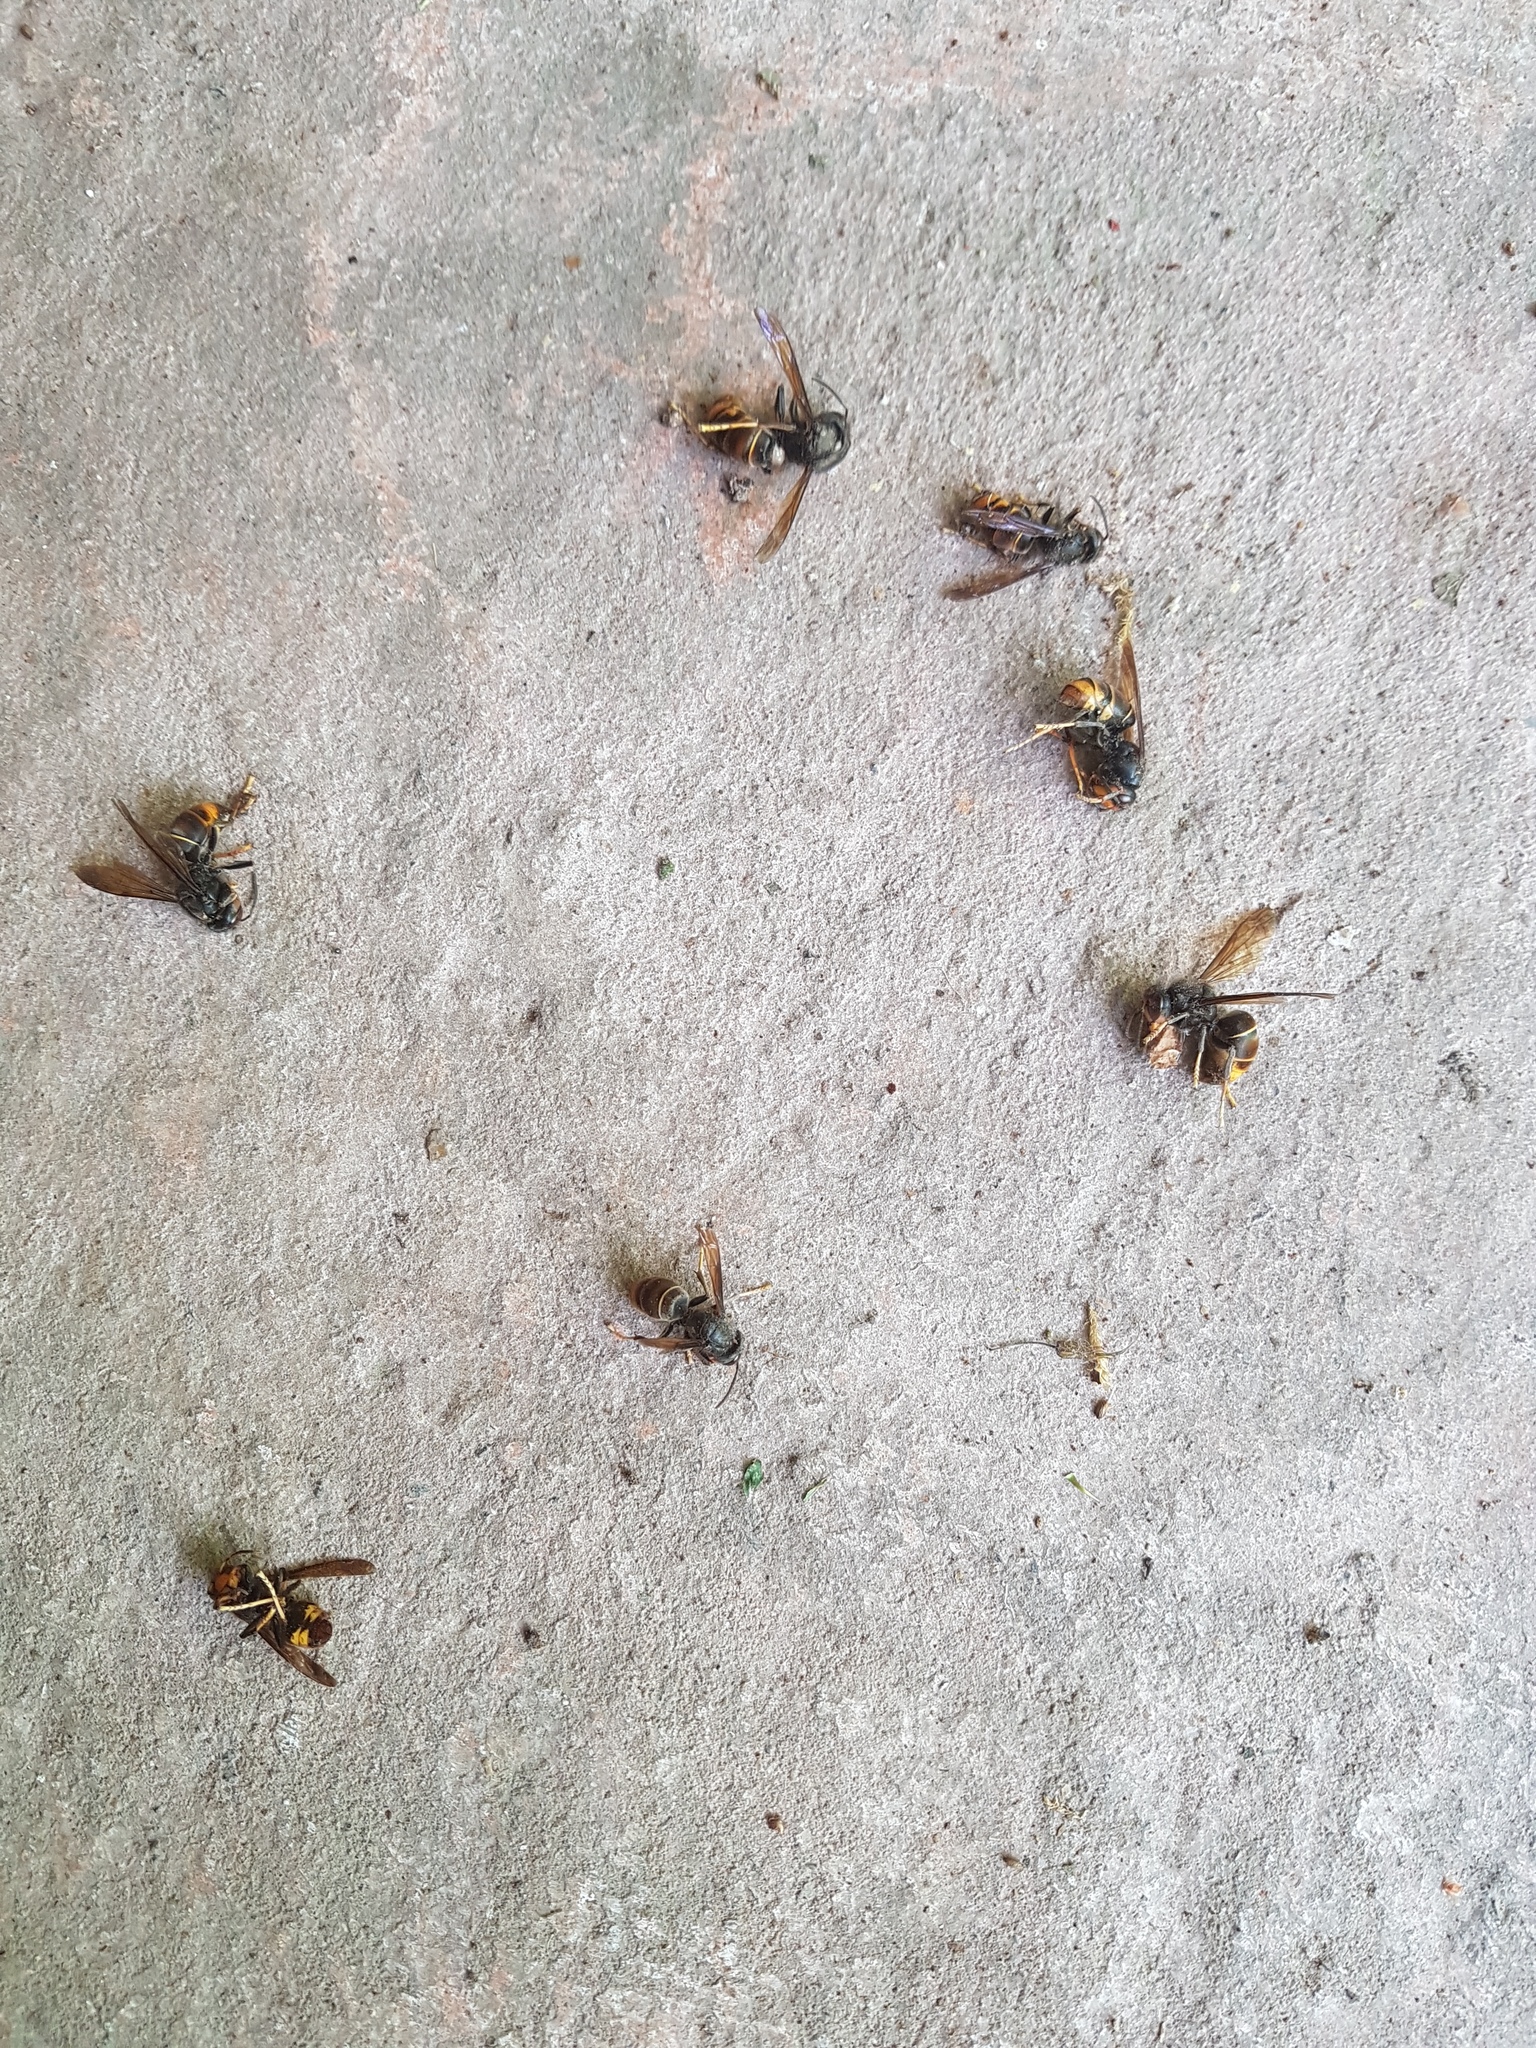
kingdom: Animalia
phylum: Arthropoda
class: Insecta
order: Hymenoptera
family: Vespidae
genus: Vespa
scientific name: Vespa velutina
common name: Asian hornet
